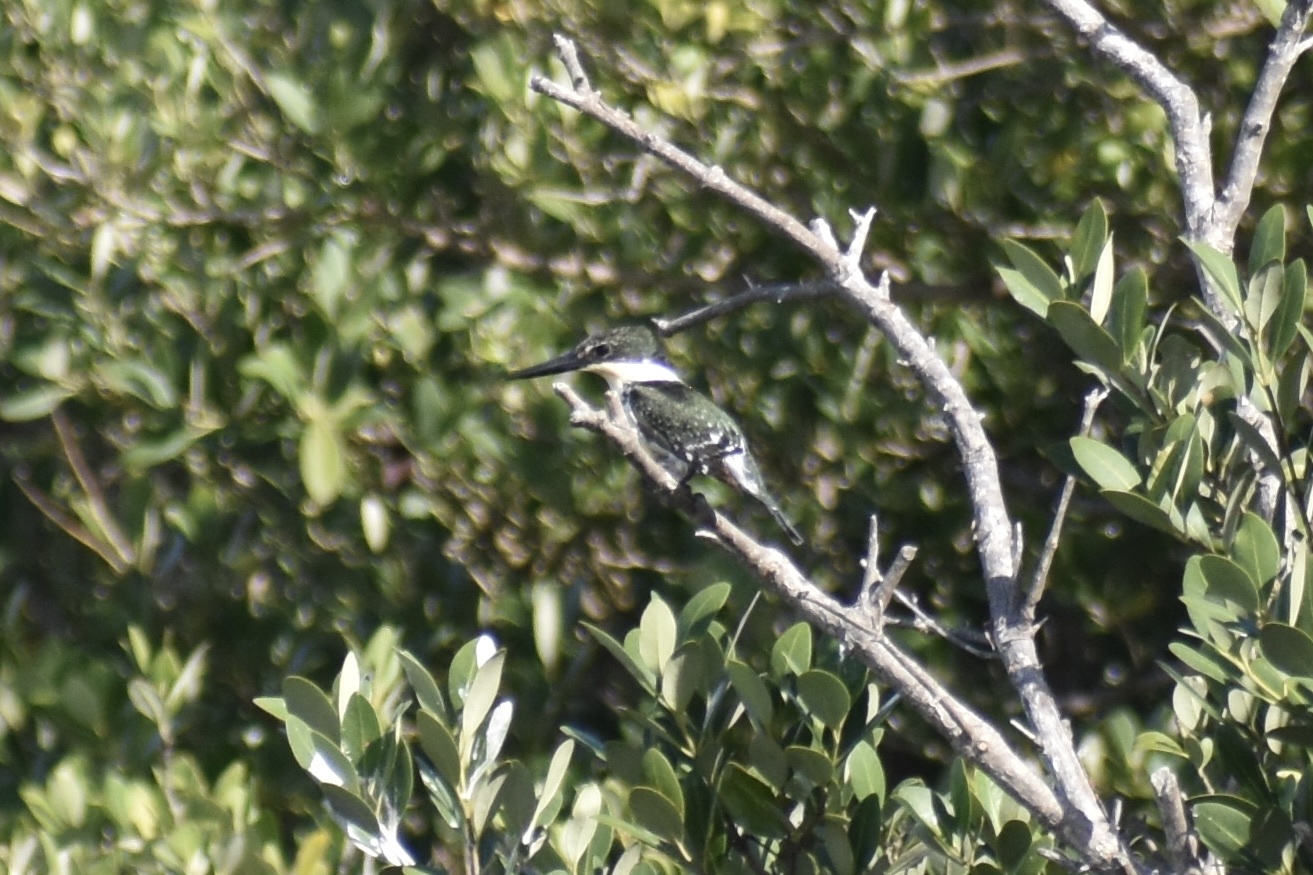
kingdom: Animalia
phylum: Chordata
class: Aves
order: Coraciiformes
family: Alcedinidae
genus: Chloroceryle
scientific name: Chloroceryle americana
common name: Green kingfisher
